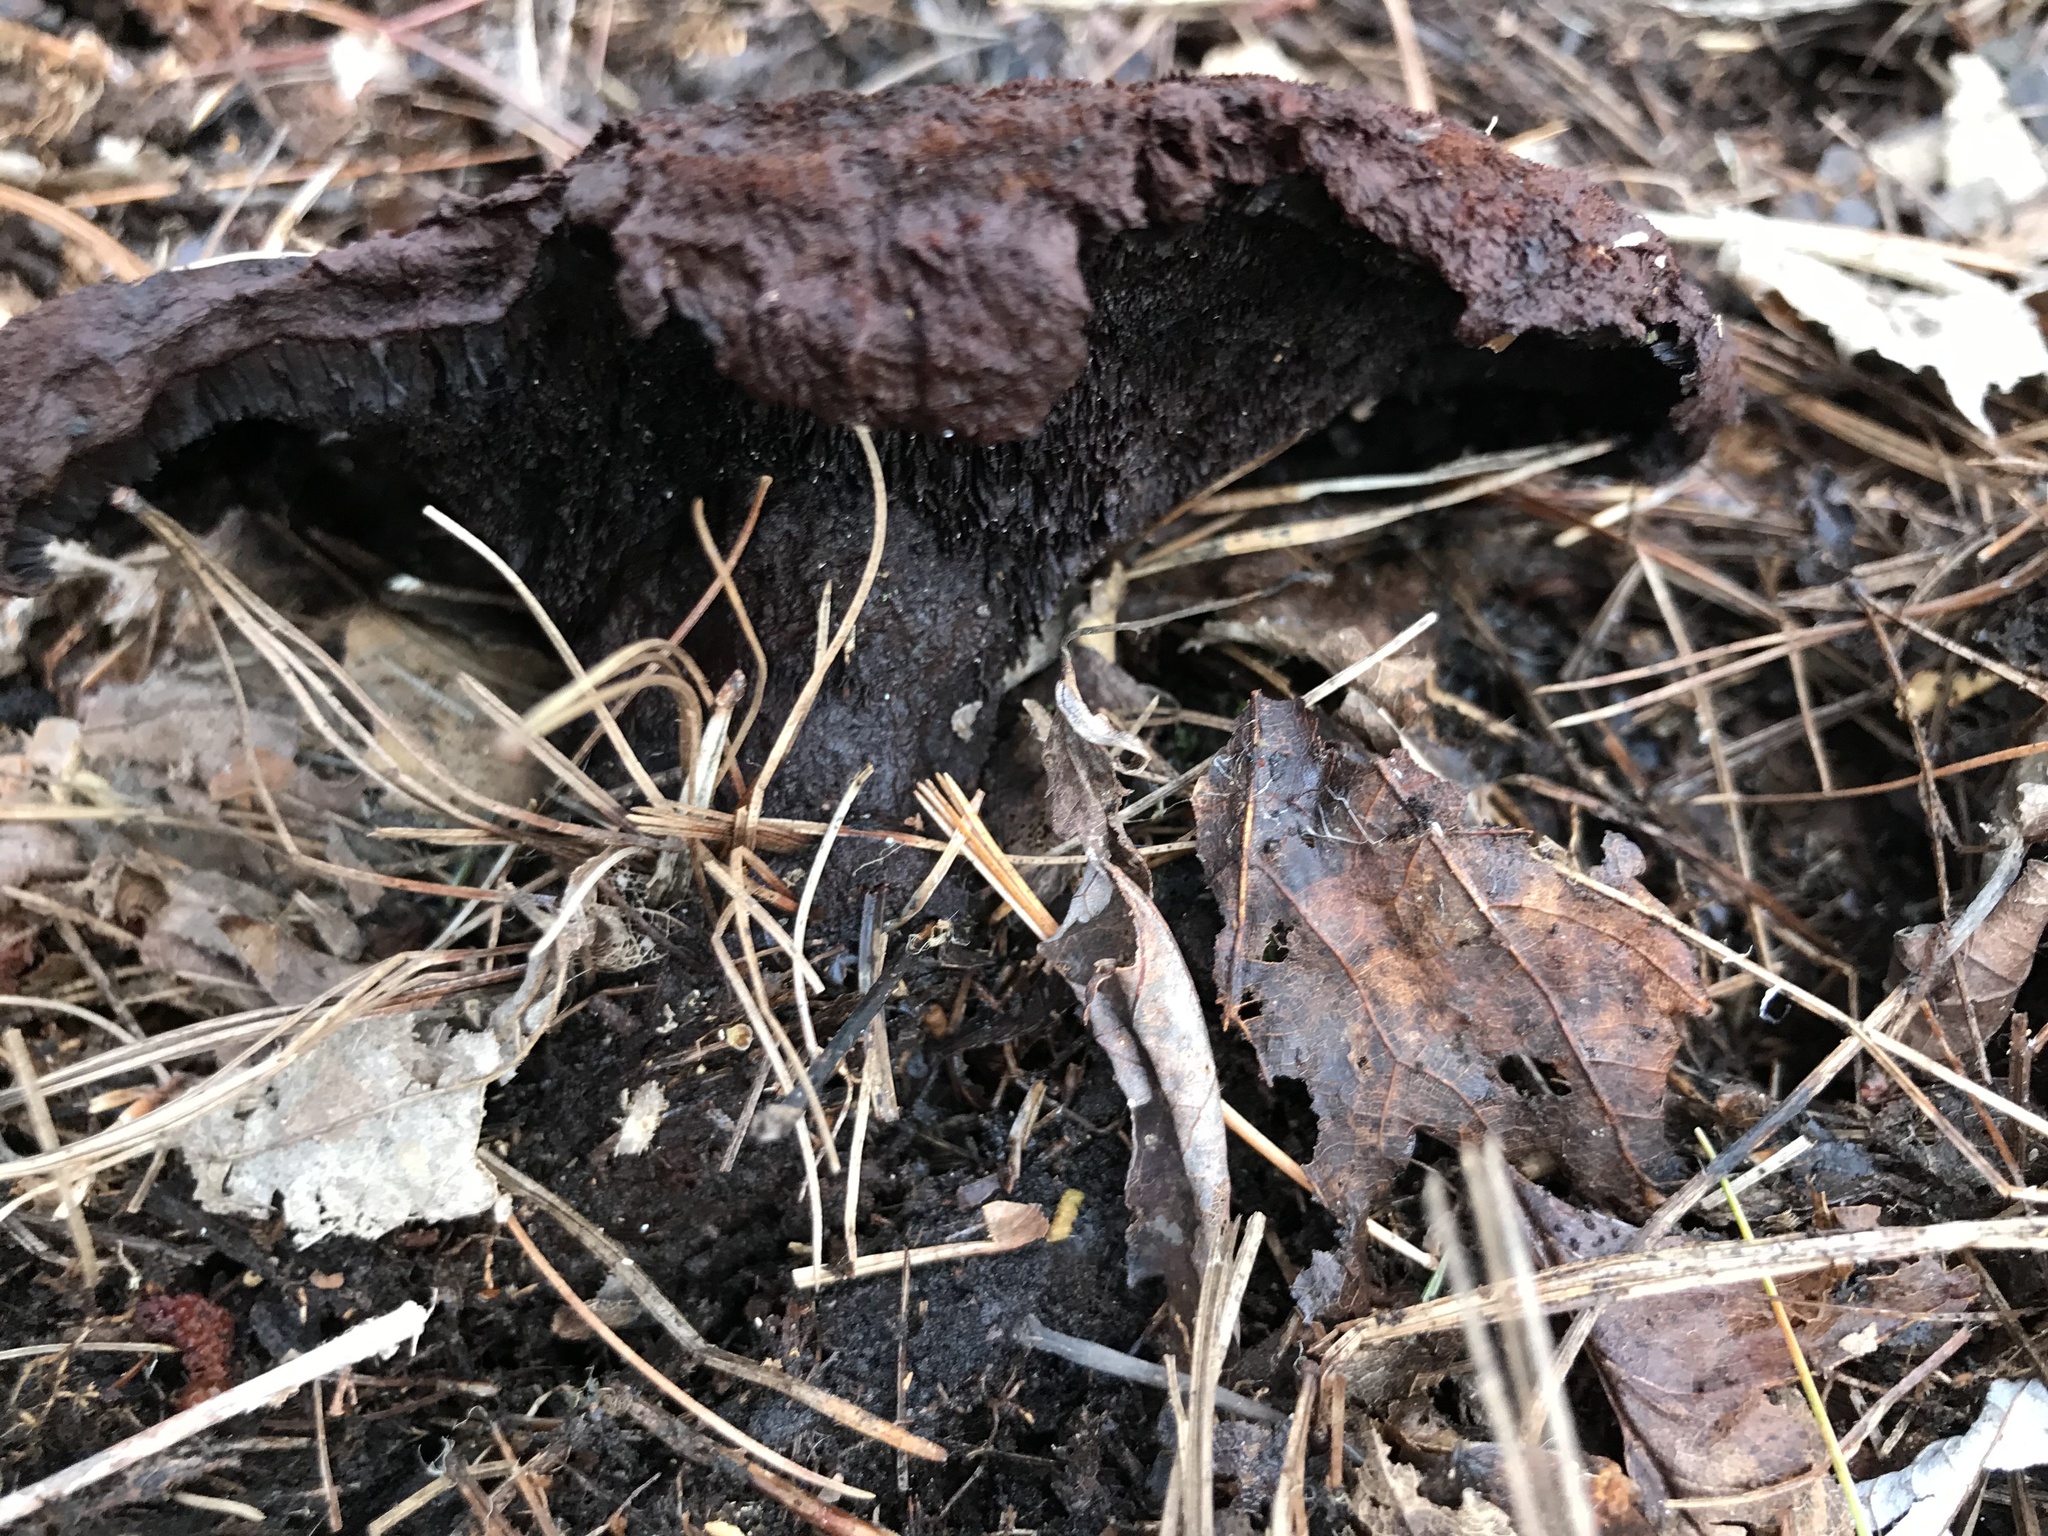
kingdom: Fungi
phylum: Basidiomycota
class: Agaricomycetes
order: Polyporales
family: Laetiporaceae
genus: Phaeolus
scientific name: Phaeolus schweinitzii
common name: Dyer's mazegill
